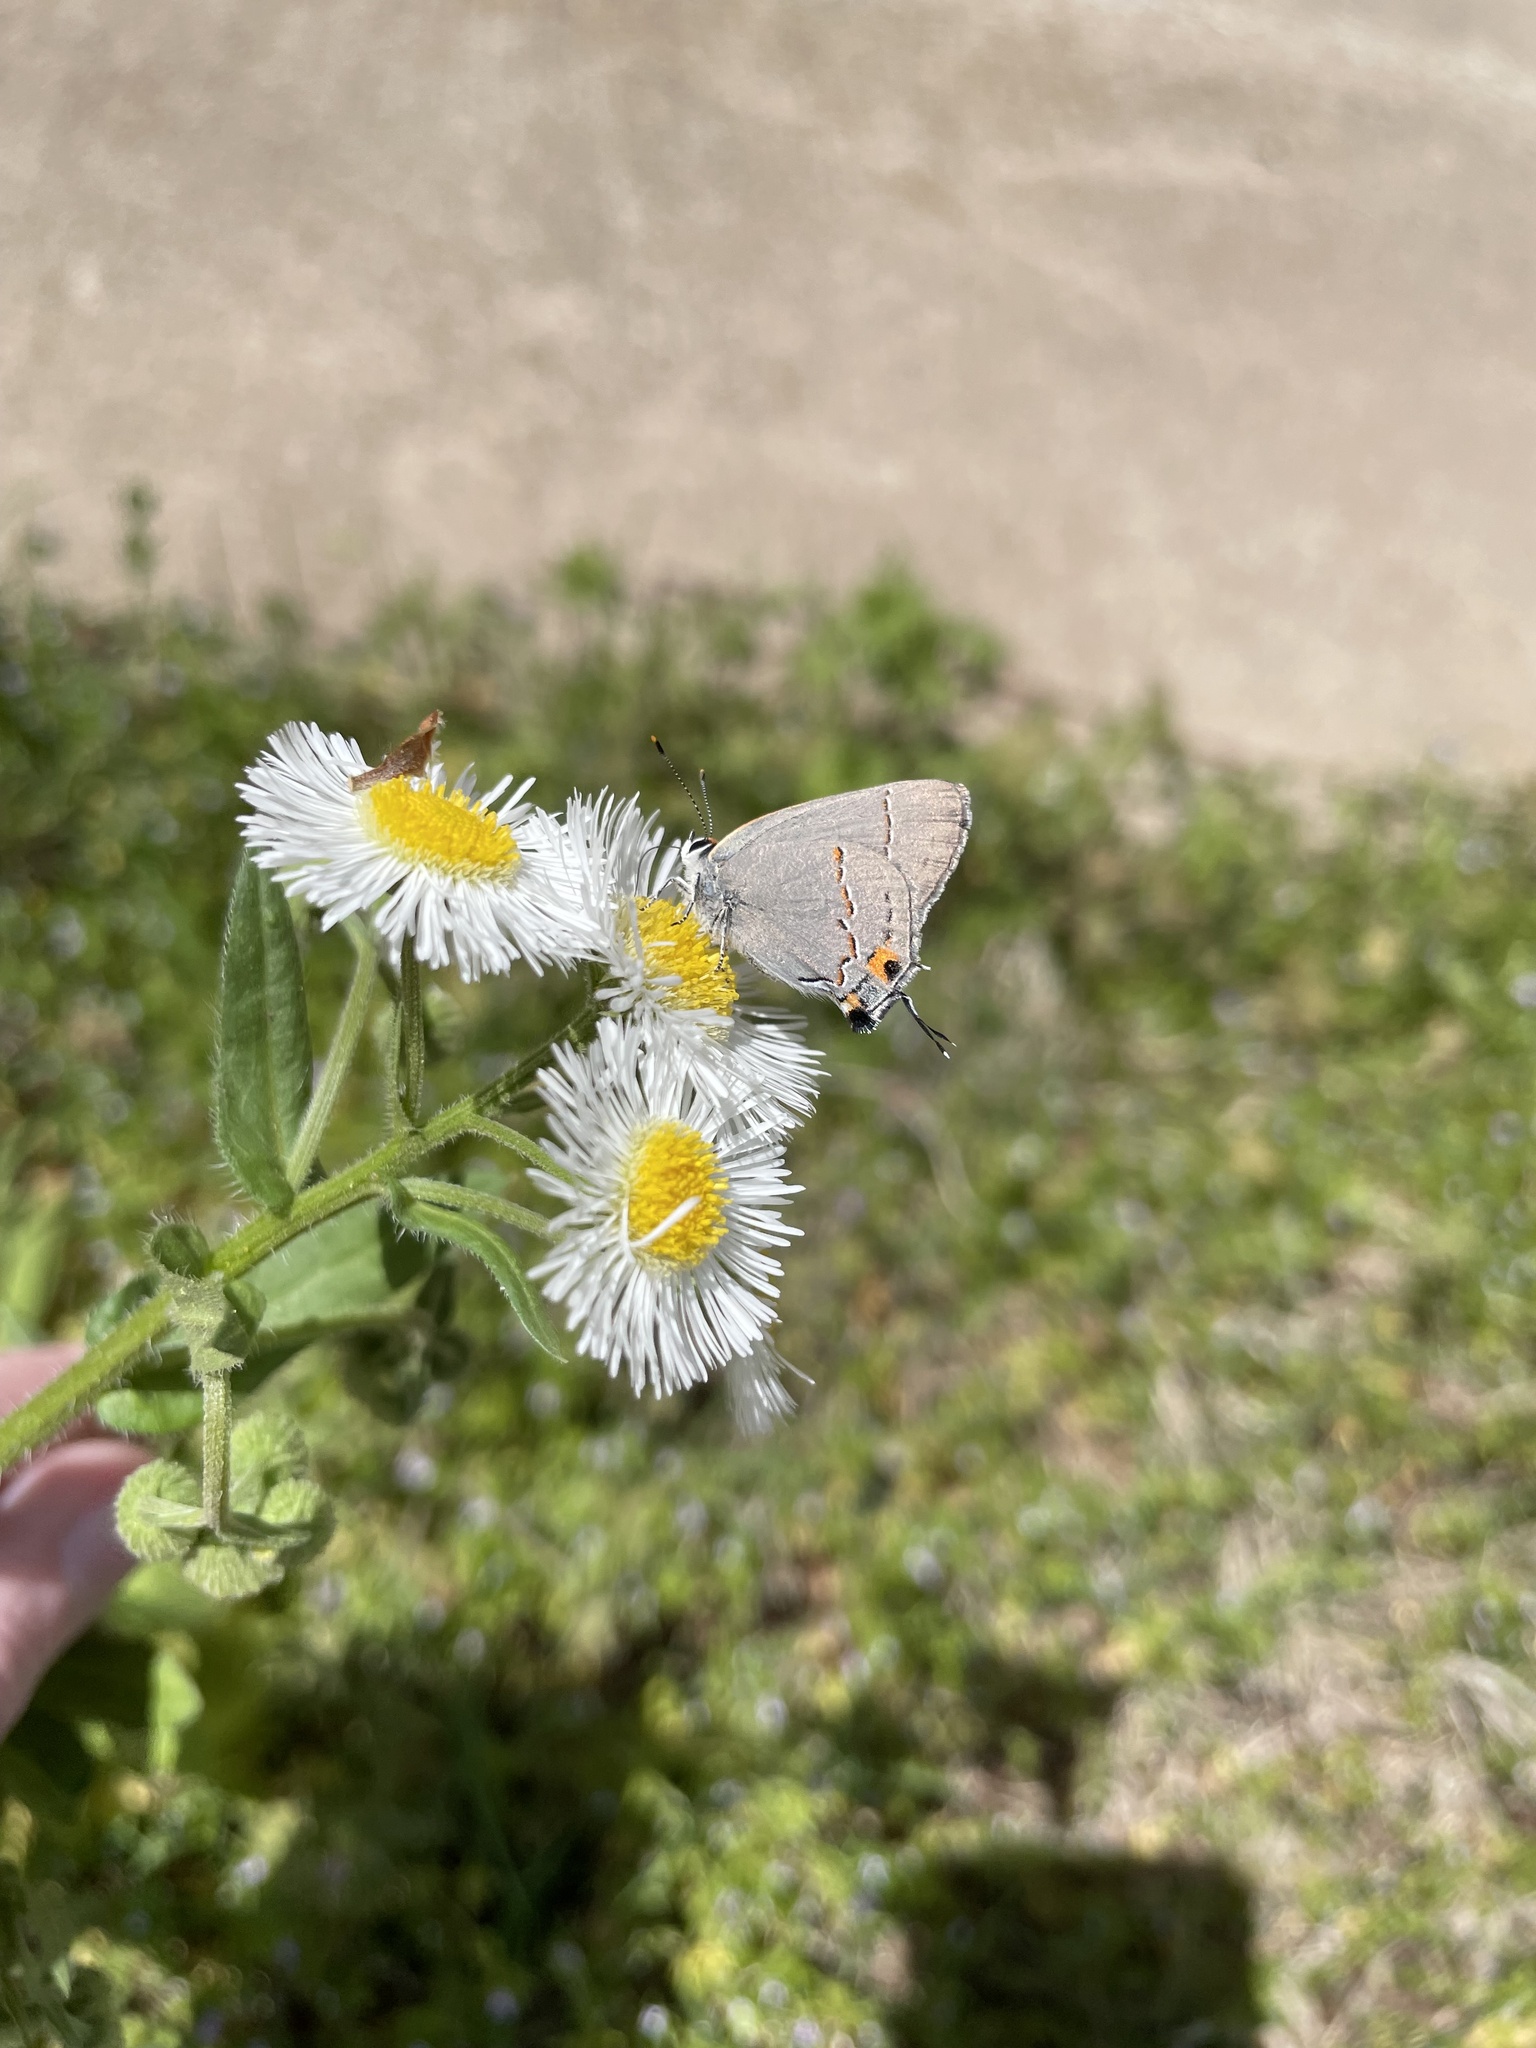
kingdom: Animalia
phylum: Arthropoda
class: Insecta
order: Lepidoptera
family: Lycaenidae
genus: Strymon
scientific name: Strymon melinus
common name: Gray hairstreak
